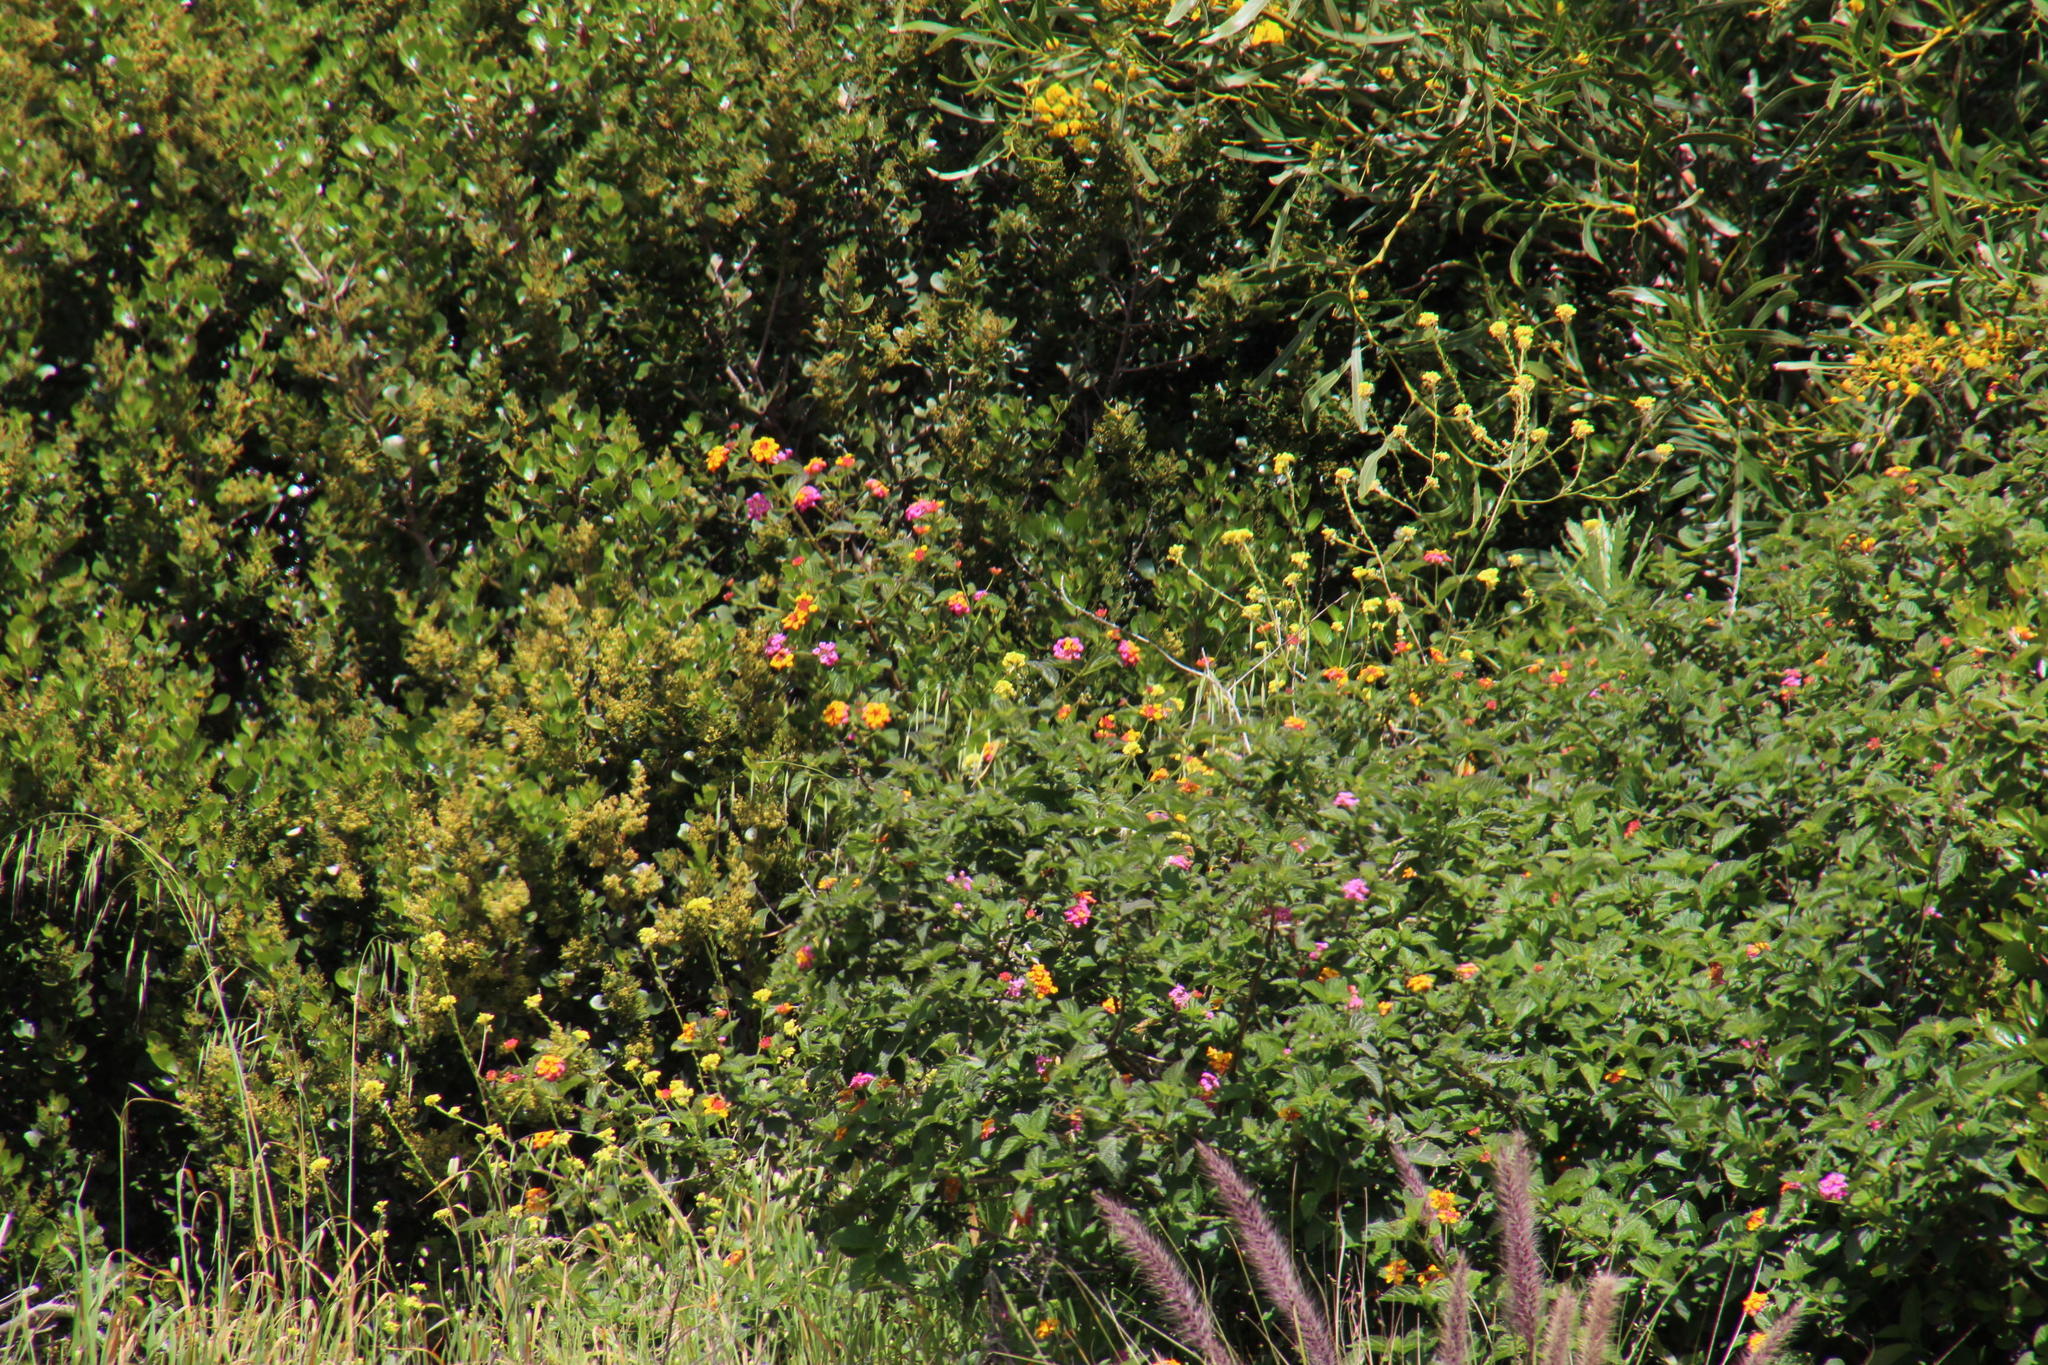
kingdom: Plantae
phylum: Tracheophyta
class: Magnoliopsida
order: Lamiales
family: Verbenaceae
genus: Lantana
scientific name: Lantana camara
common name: Lantana
